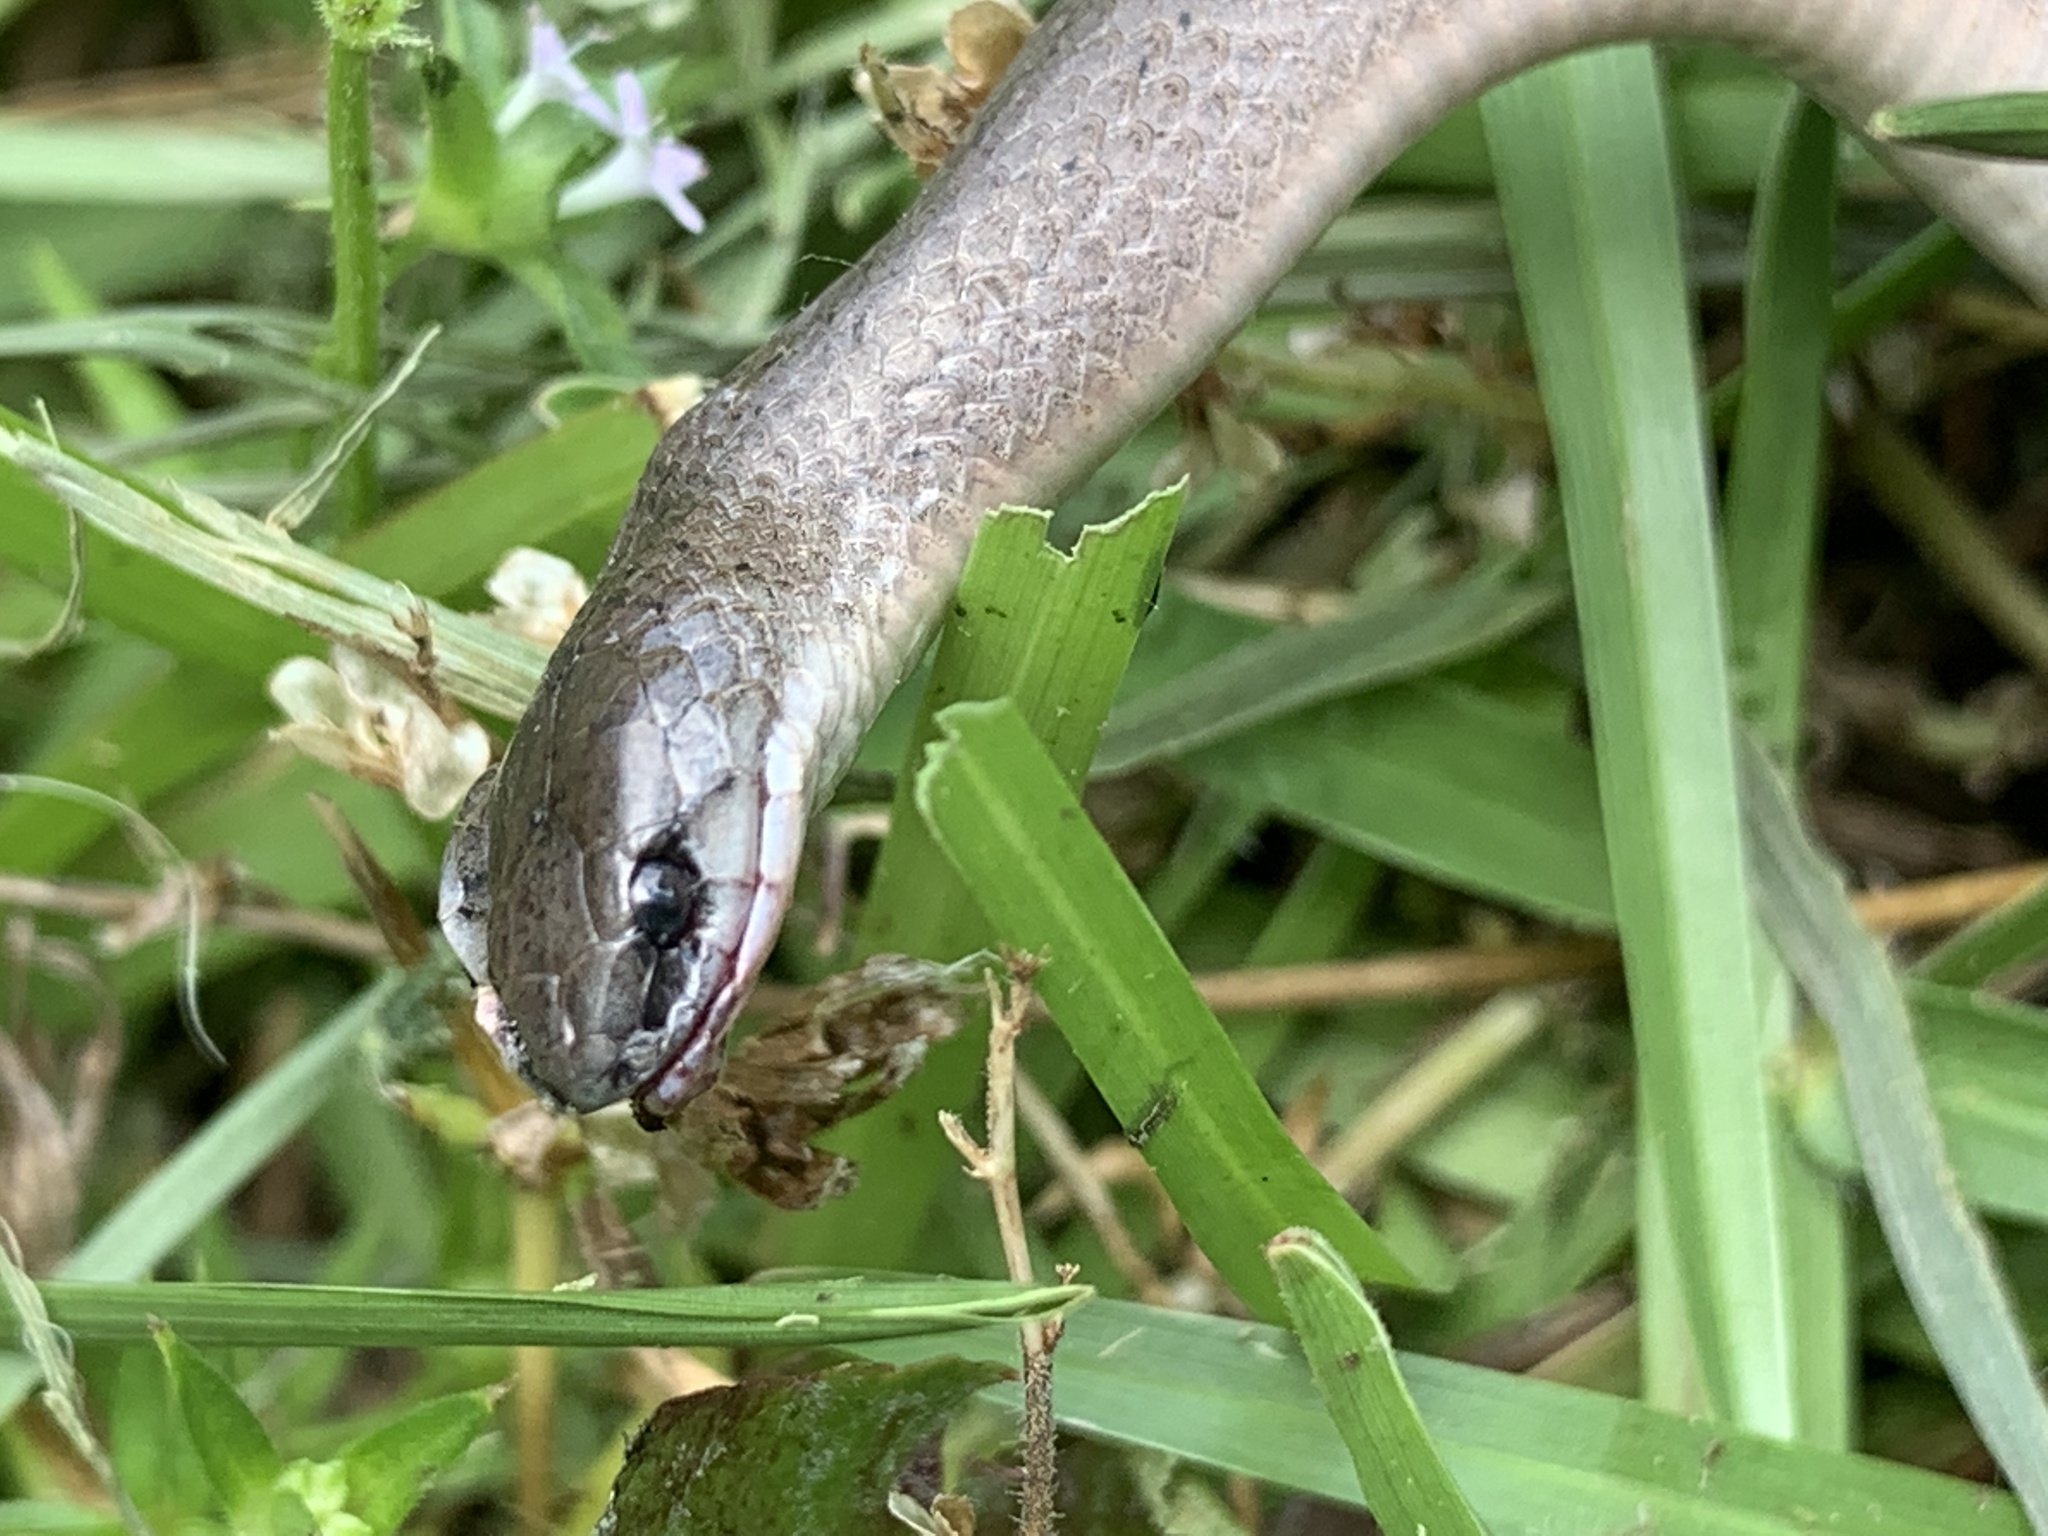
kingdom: Animalia
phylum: Chordata
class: Squamata
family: Colubridae
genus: Virginia
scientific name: Virginia valeriae
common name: Smooth earth snake
